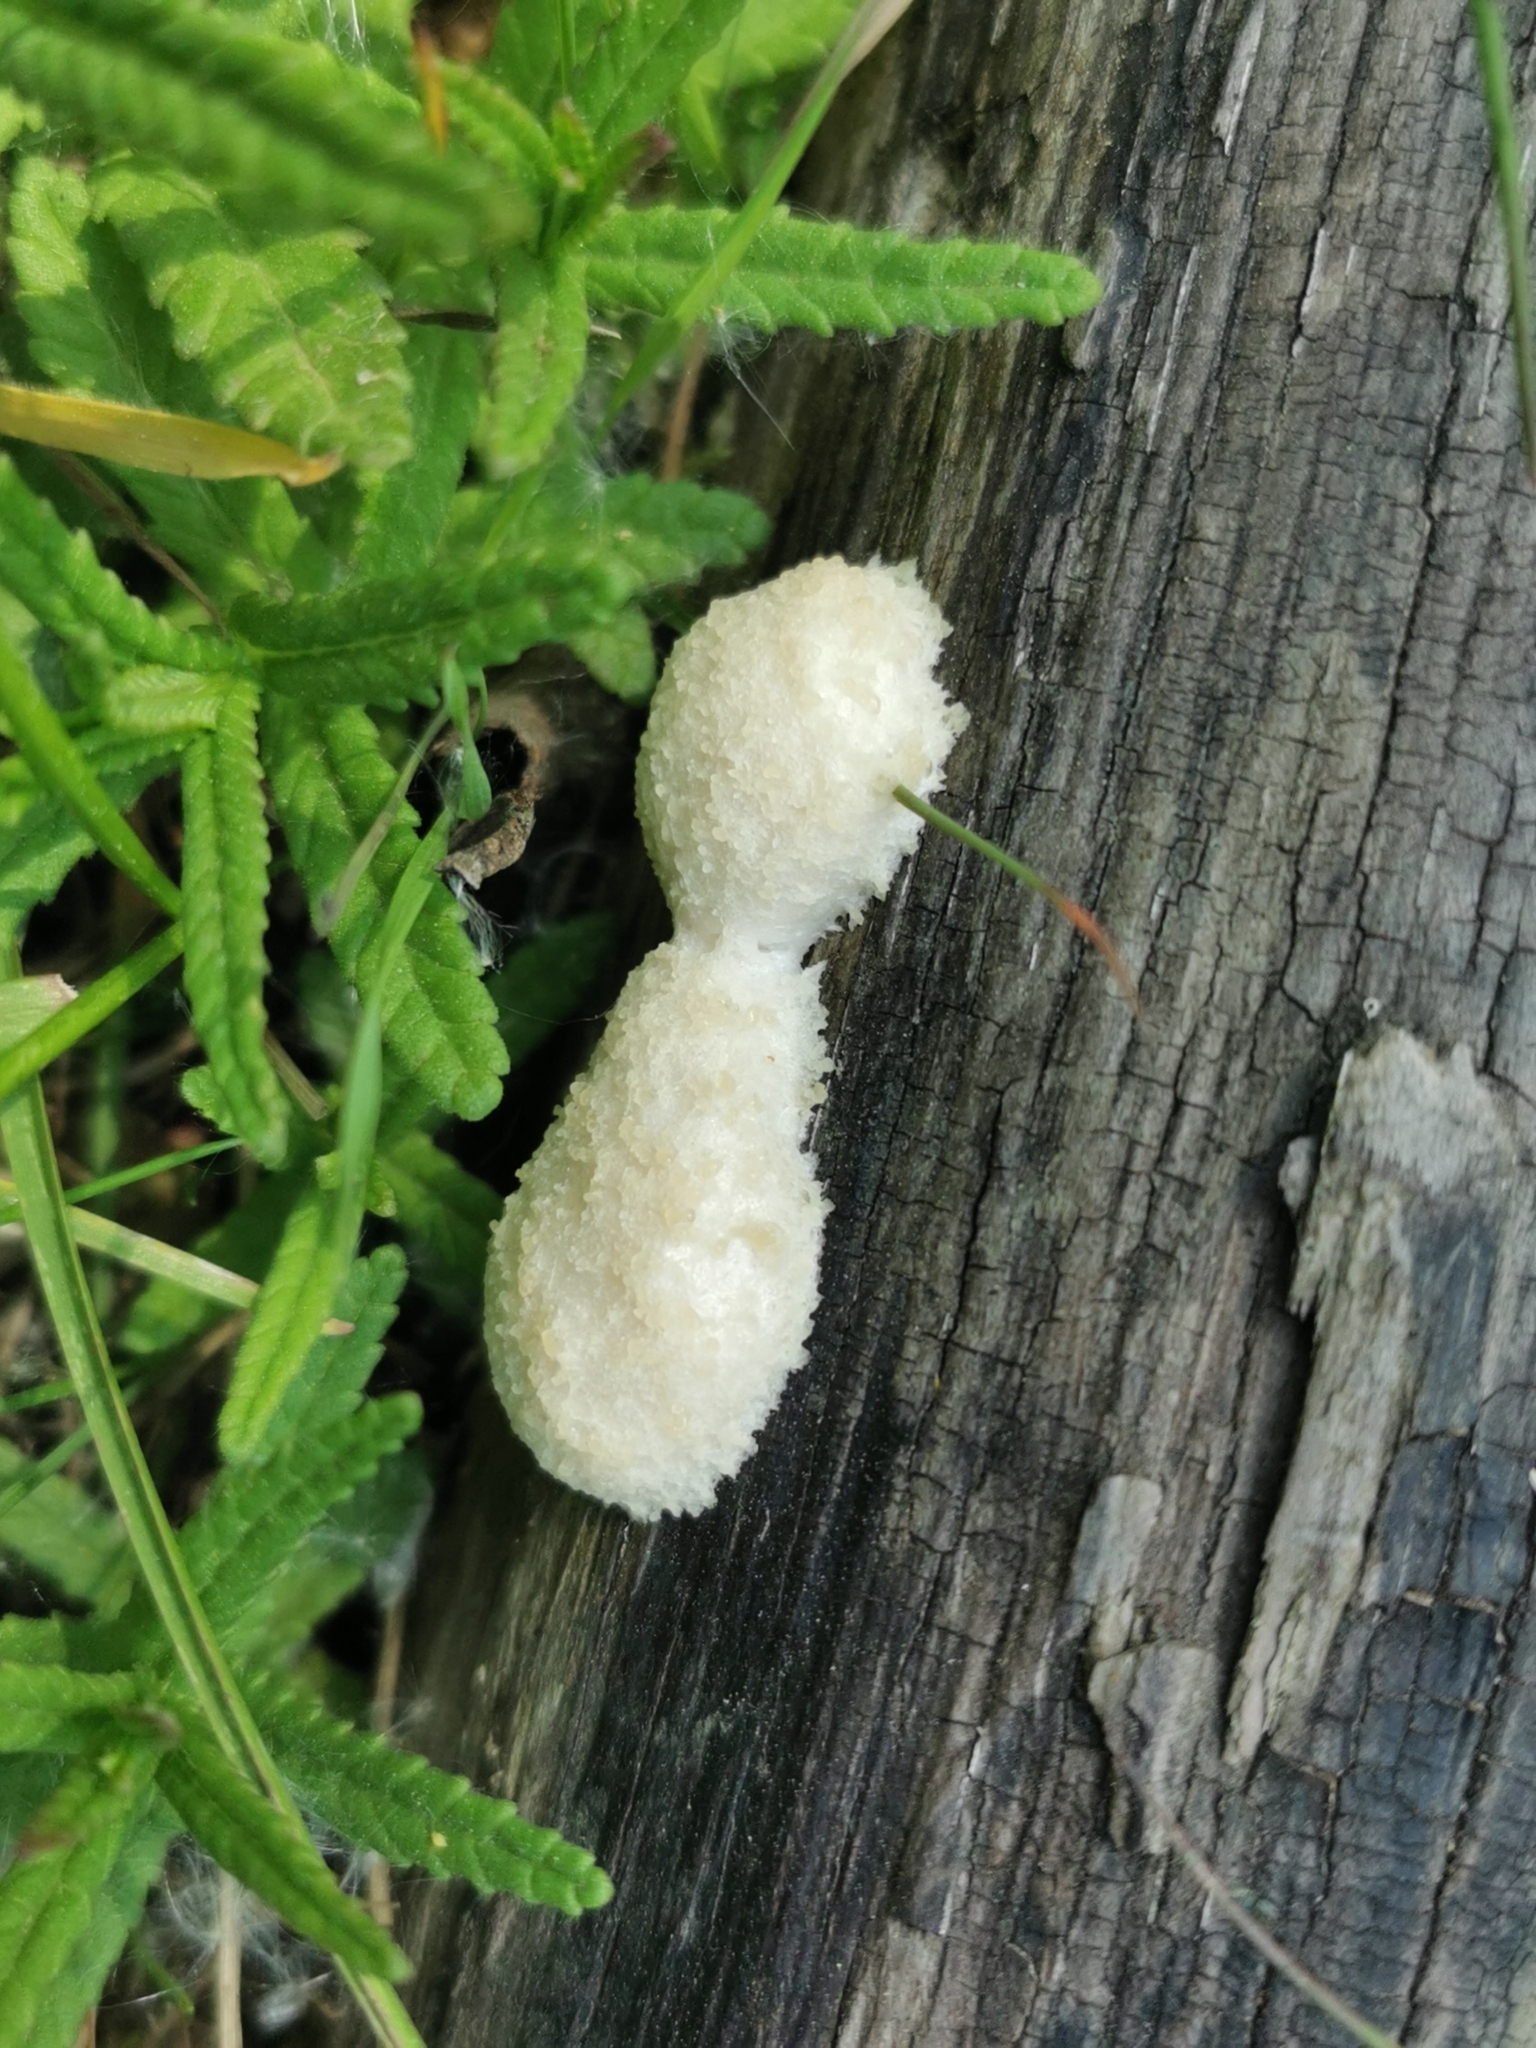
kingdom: Protozoa
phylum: Mycetozoa
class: Myxomycetes
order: Cribrariales
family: Tubiferaceae
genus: Reticularia
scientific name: Reticularia lycoperdon
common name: False puffball
